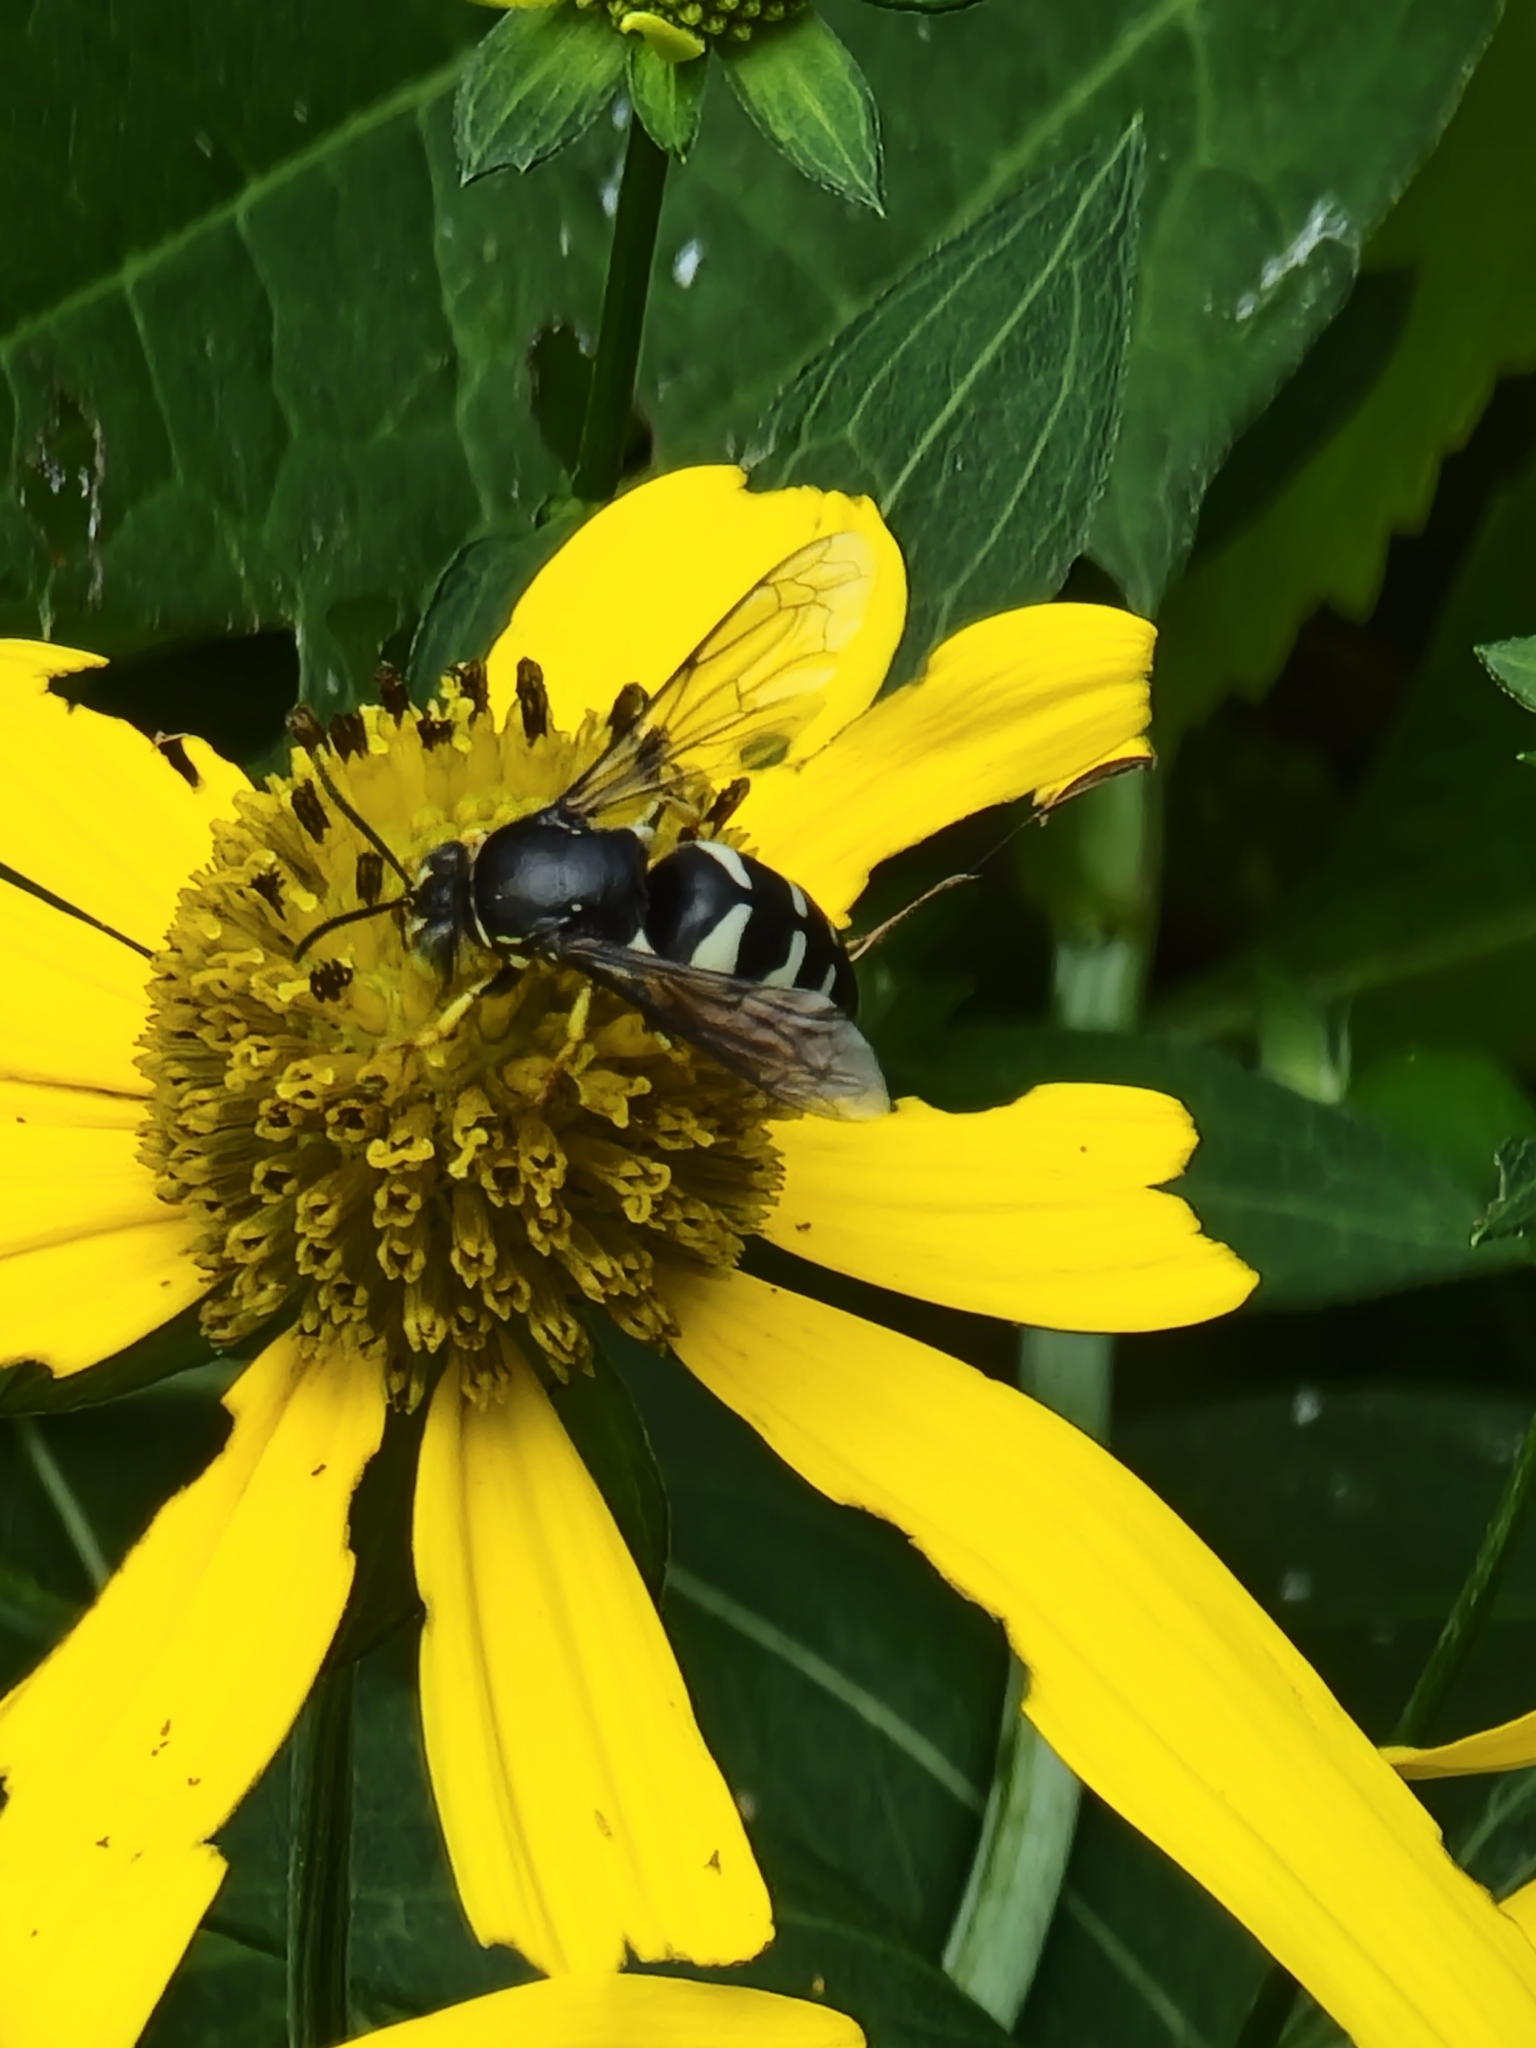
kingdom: Animalia
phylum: Arthropoda
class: Insecta
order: Hymenoptera
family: Crabronidae
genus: Bicyrtes
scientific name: Bicyrtes quadrifasciatus
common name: Four-banded stink bug hunter wasp
